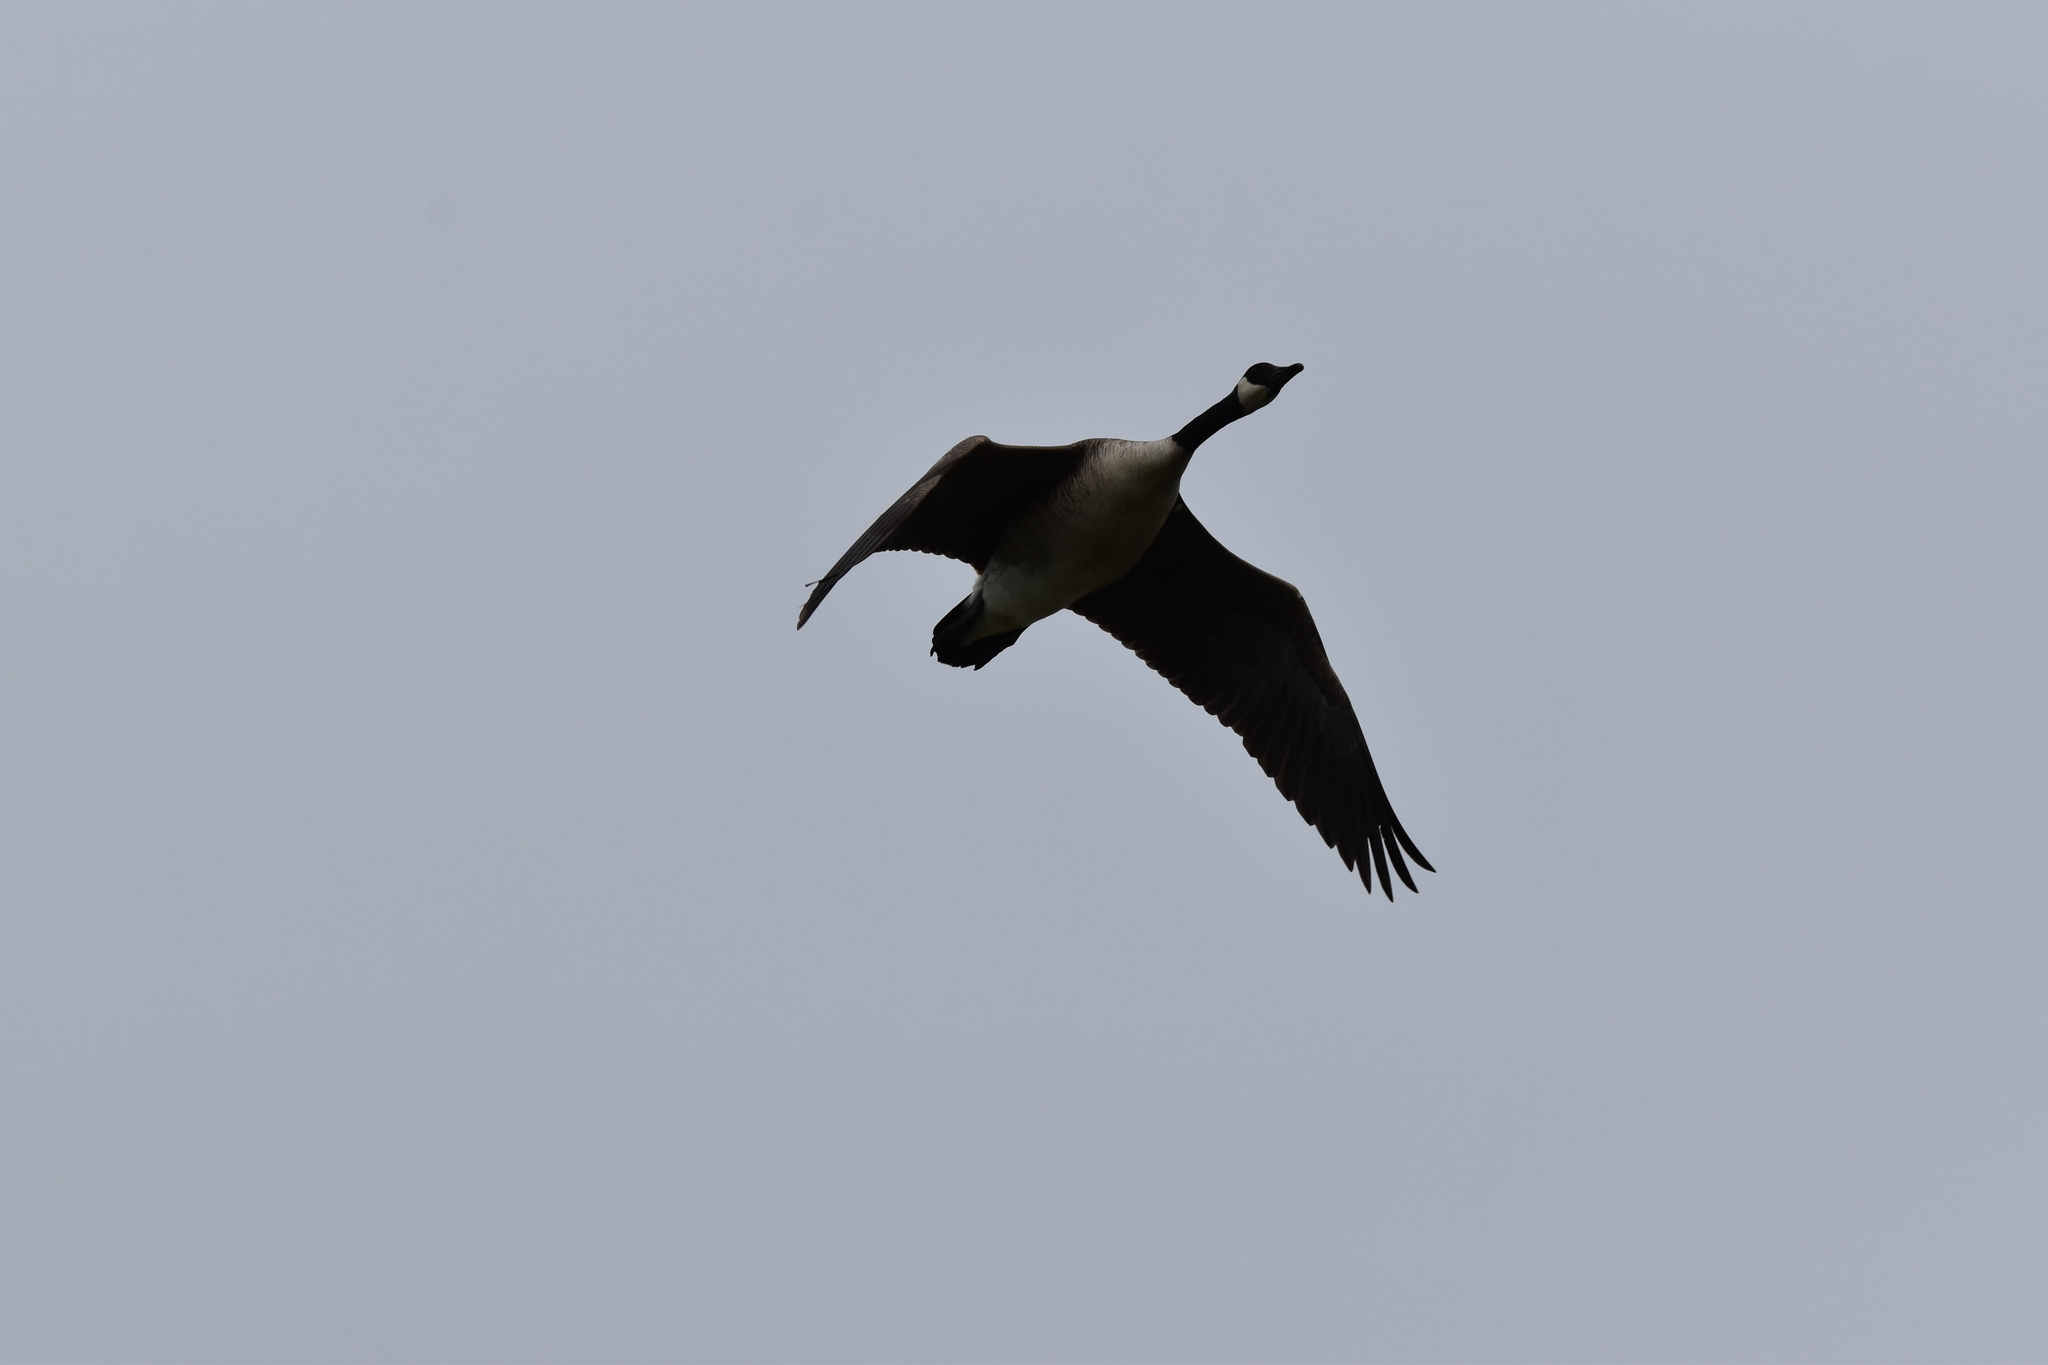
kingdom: Animalia
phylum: Chordata
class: Aves
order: Anseriformes
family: Anatidae
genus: Branta
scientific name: Branta canadensis
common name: Canada goose
